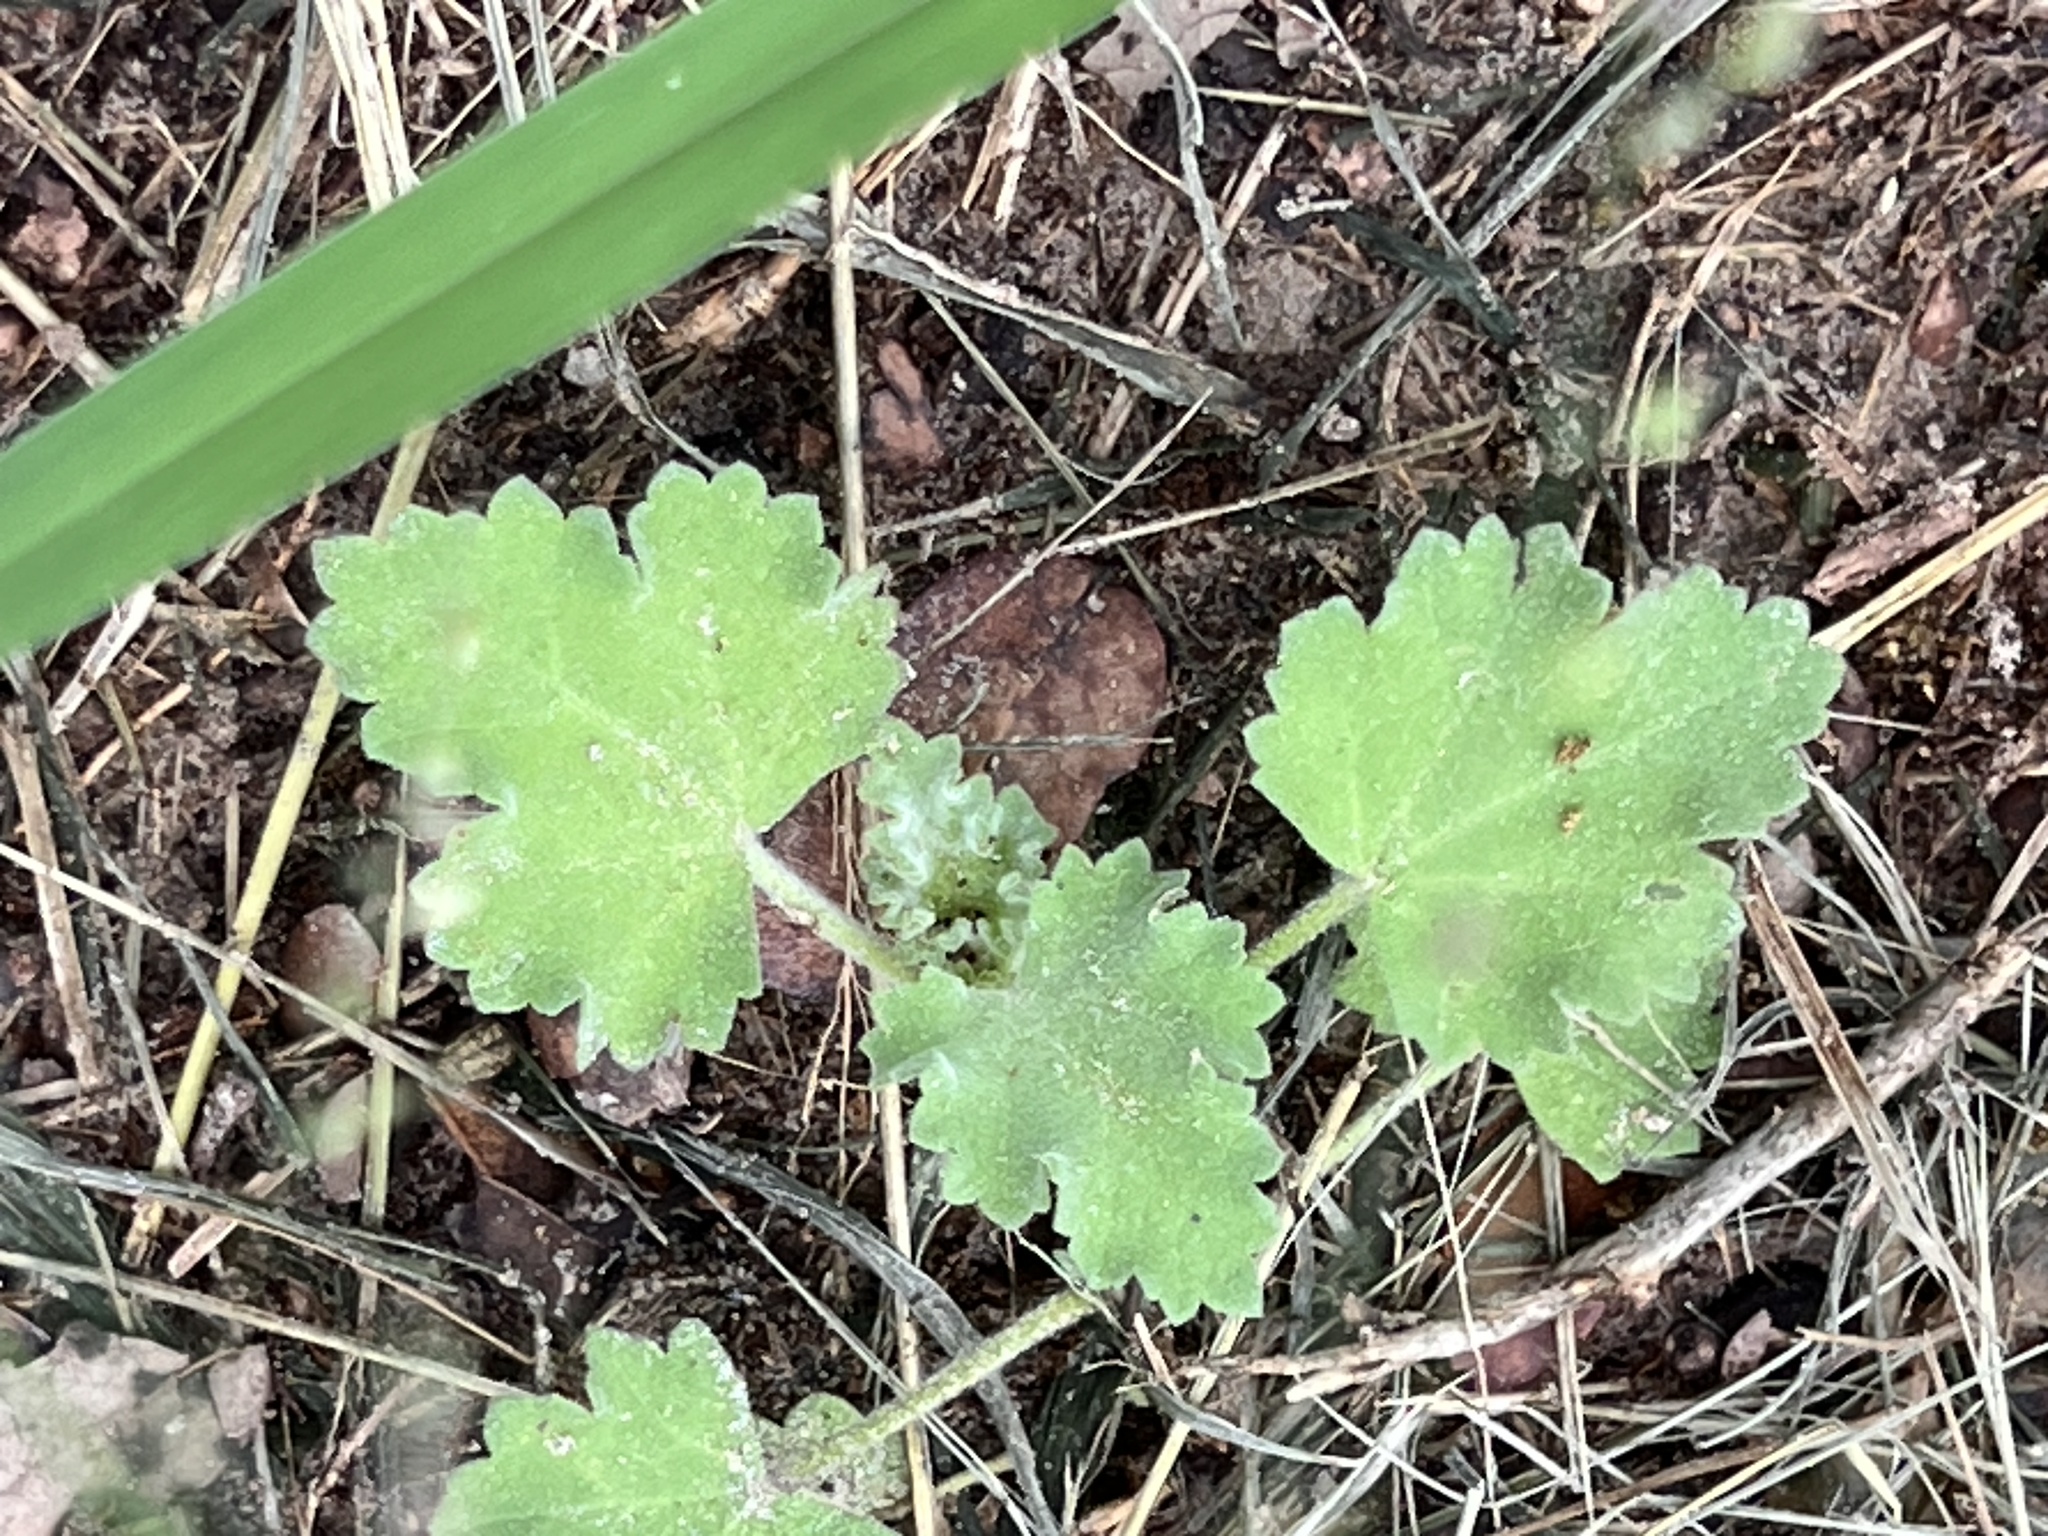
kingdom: Plantae
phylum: Tracheophyta
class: Magnoliopsida
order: Malvales
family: Malvaceae
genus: Sphaeralcea
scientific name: Sphaeralcea lindheimeri
